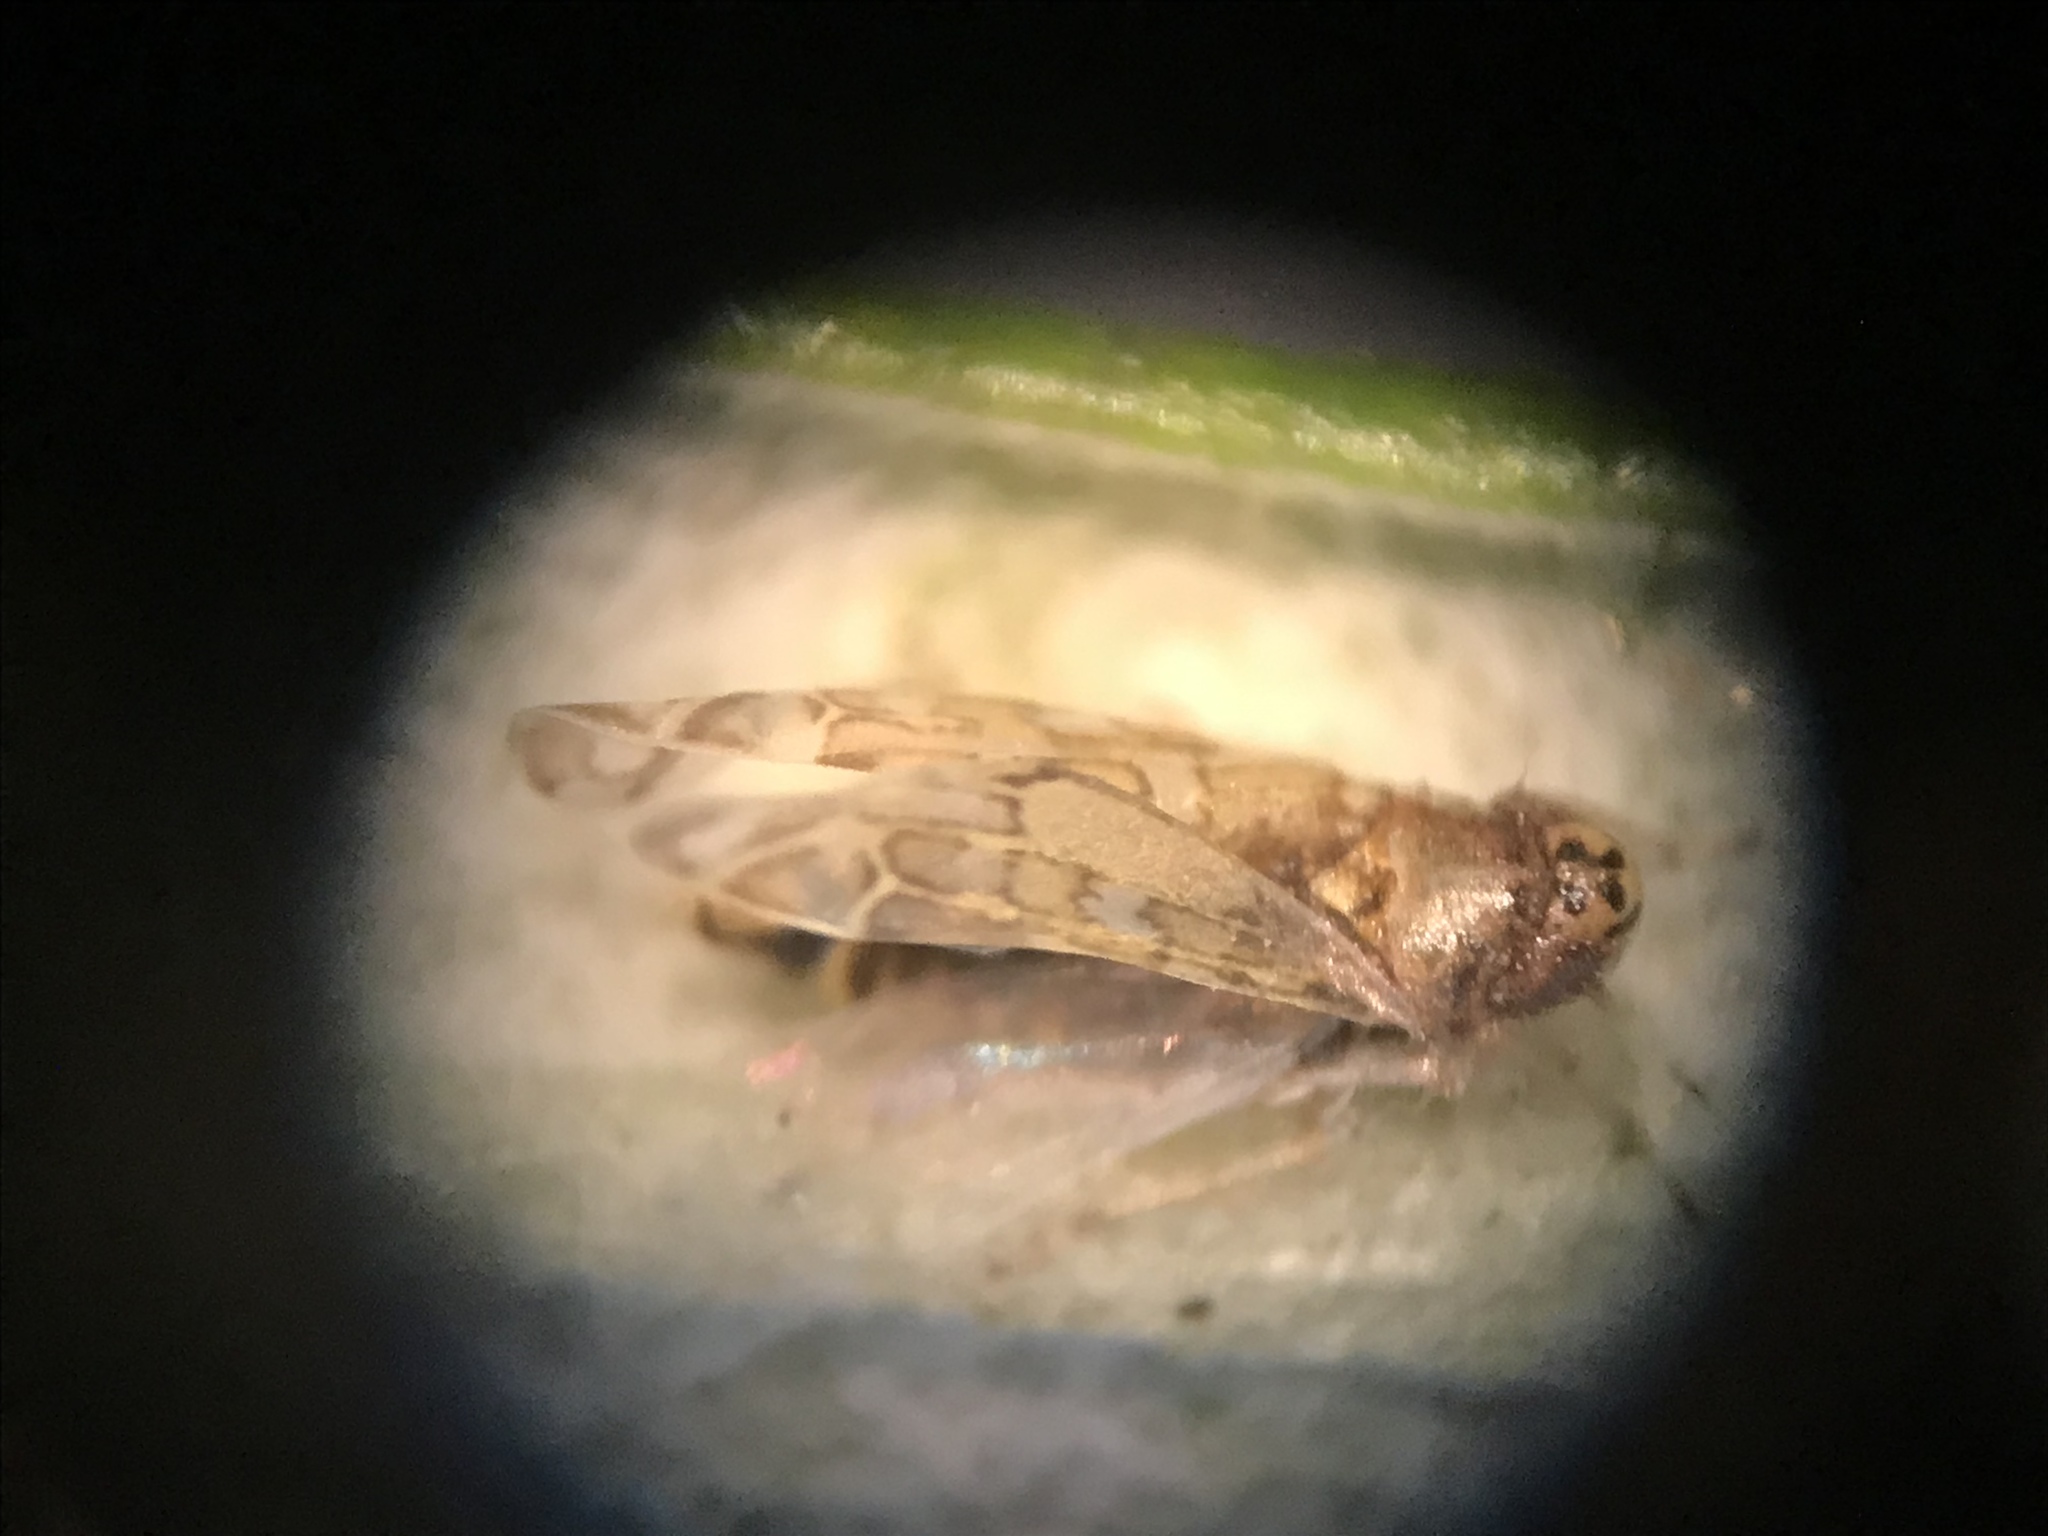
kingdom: Animalia
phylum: Arthropoda
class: Insecta
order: Hemiptera
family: Cicadellidae
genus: Eupteryx
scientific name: Eupteryx decemnotata
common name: Ligurian leafhopper
